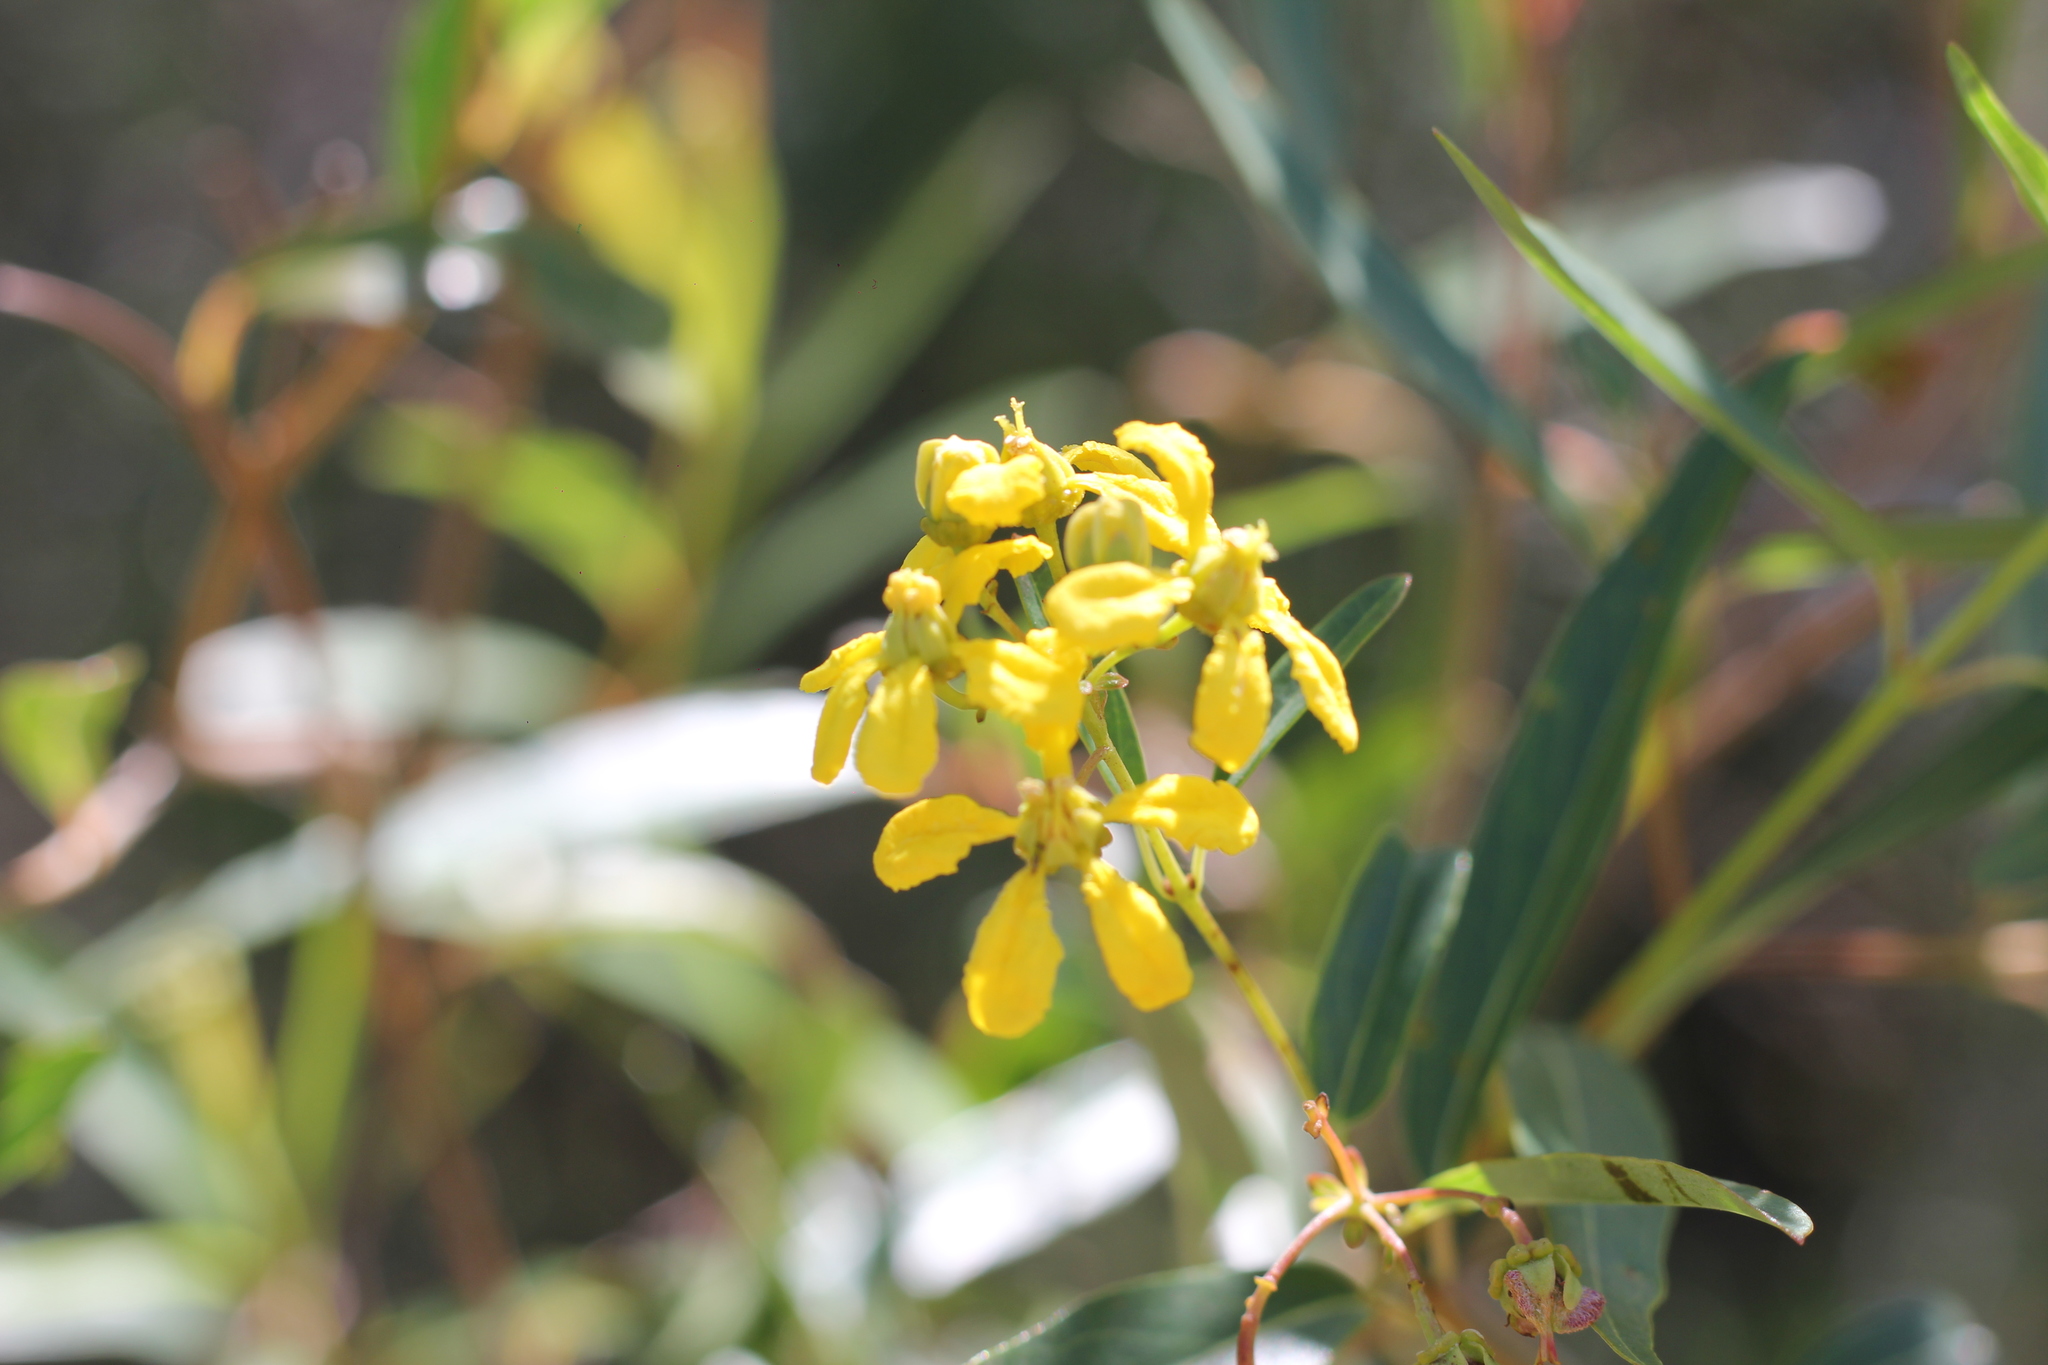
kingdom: Plantae
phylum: Tracheophyta
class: Magnoliopsida
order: Malpighiales
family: Malpighiaceae
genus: Heteropterys
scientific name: Heteropterys glabra
